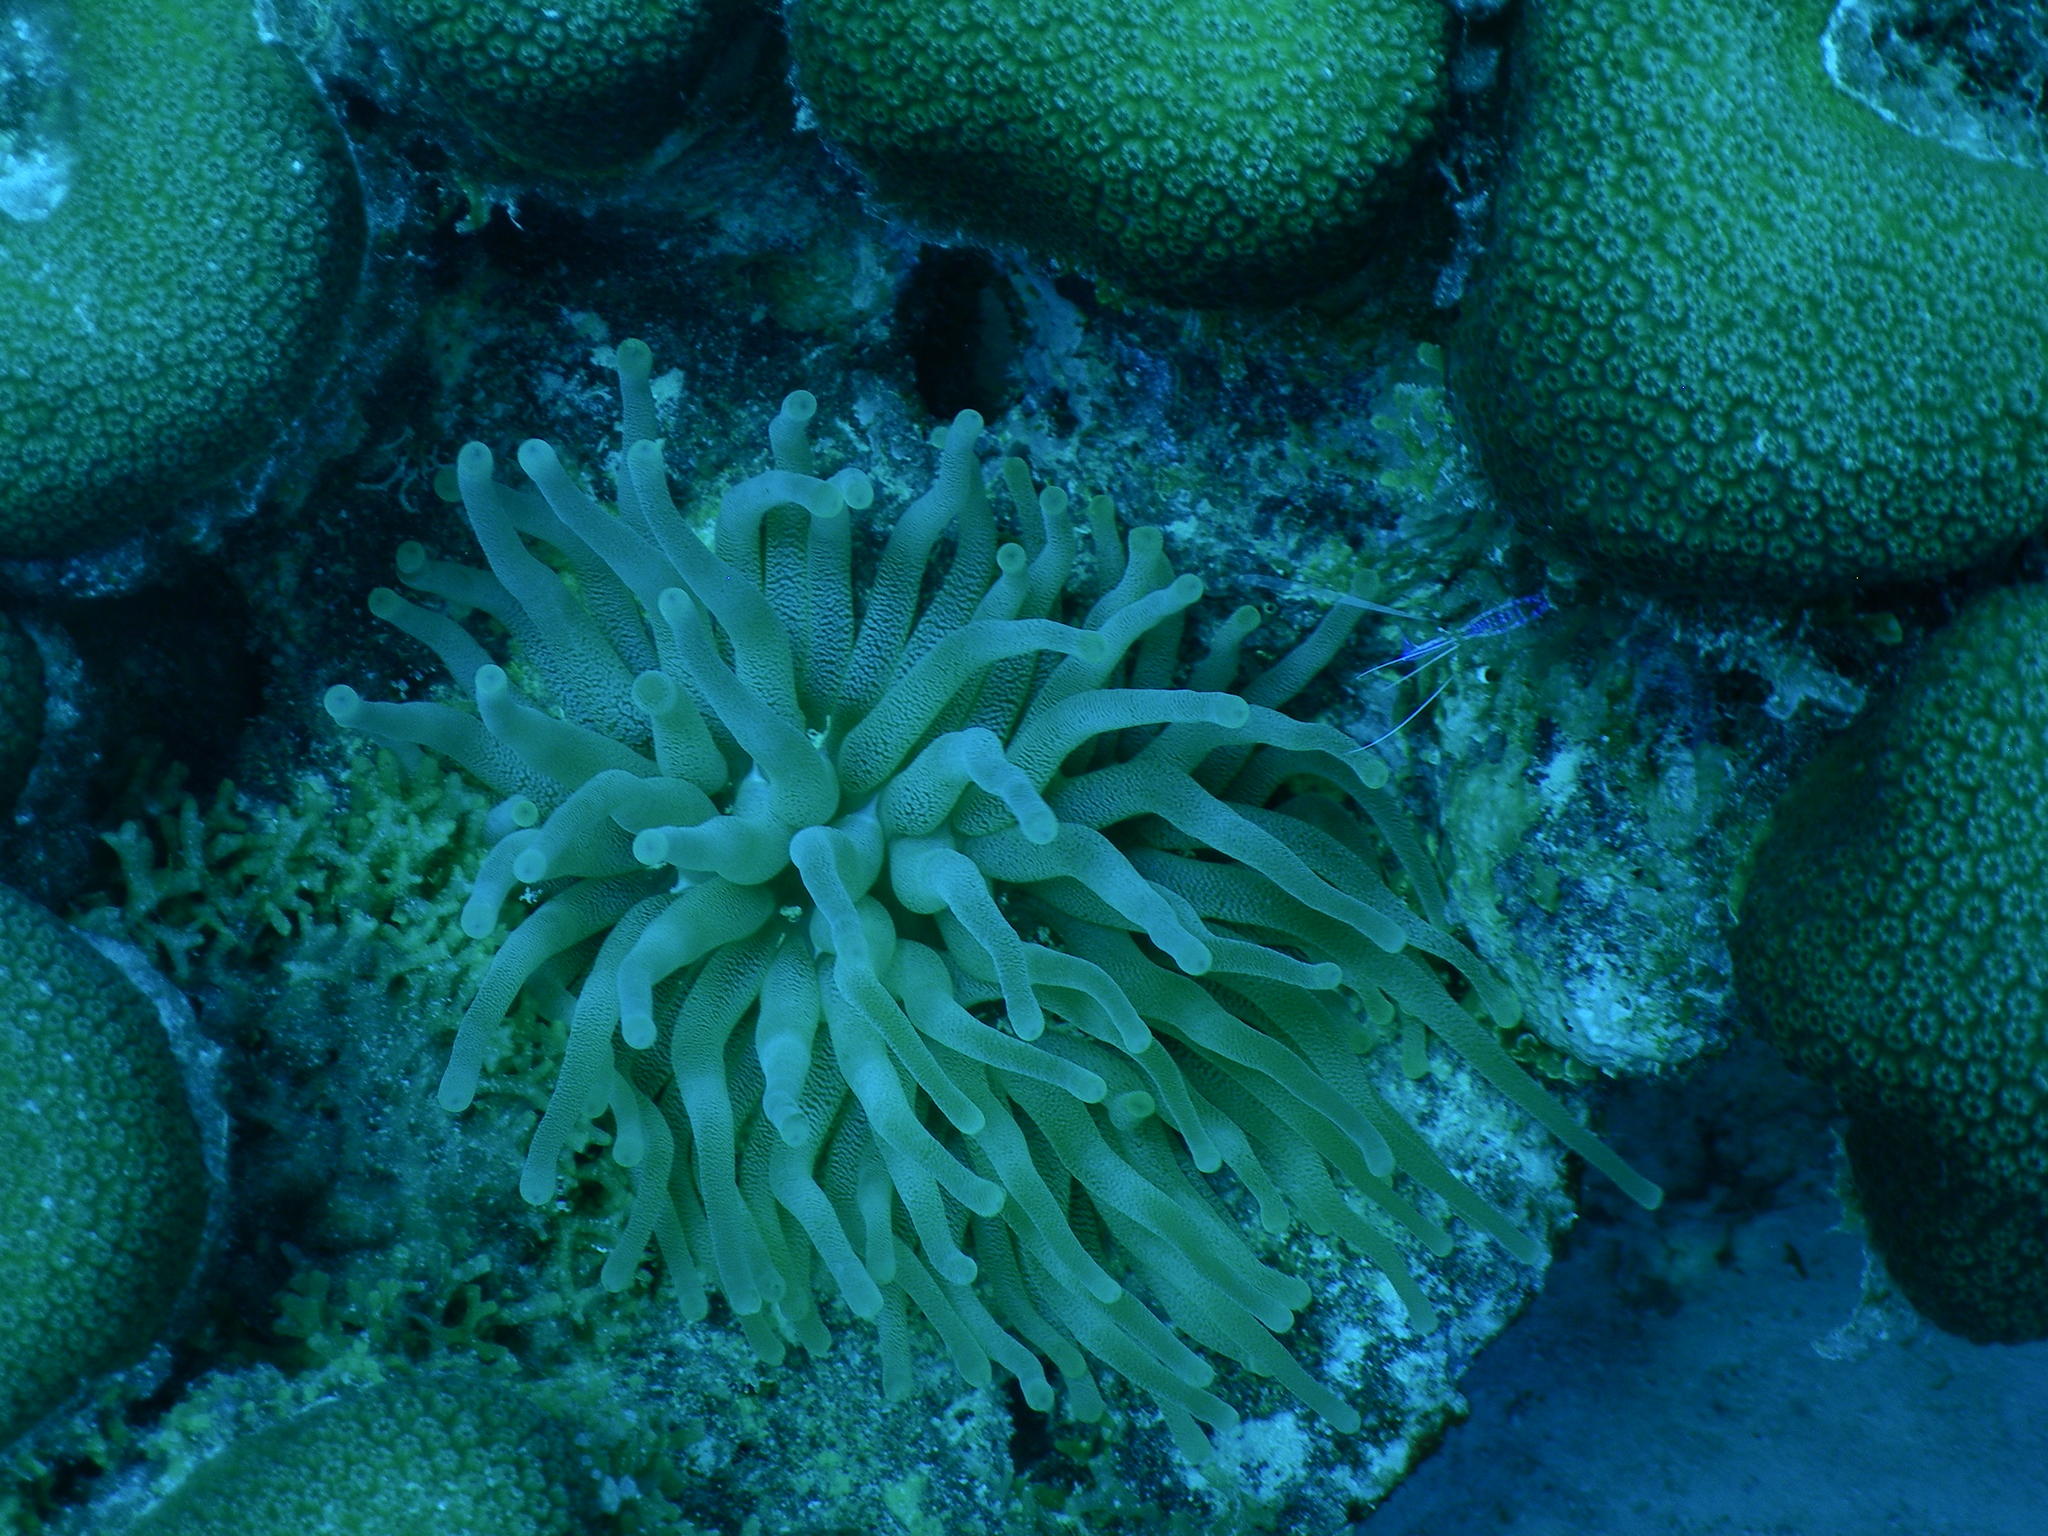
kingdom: Animalia
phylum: Cnidaria
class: Anthozoa
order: Actiniaria
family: Actiniidae
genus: Condylactis
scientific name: Condylactis gigantea
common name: Giant caribbean anemone
